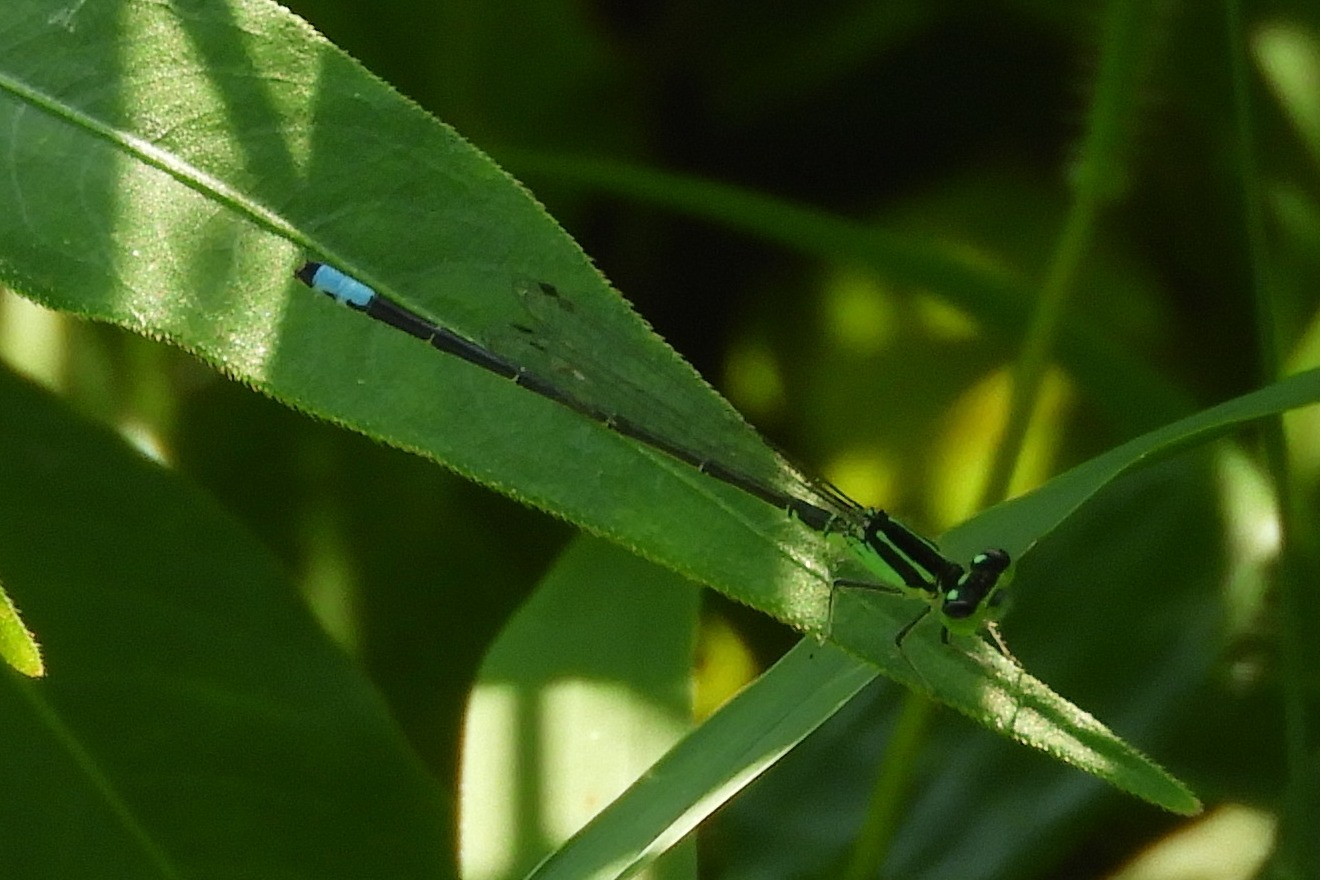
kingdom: Animalia
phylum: Arthropoda
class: Insecta
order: Odonata
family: Coenagrionidae
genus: Ischnura
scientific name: Ischnura verticalis
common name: Eastern forktail
